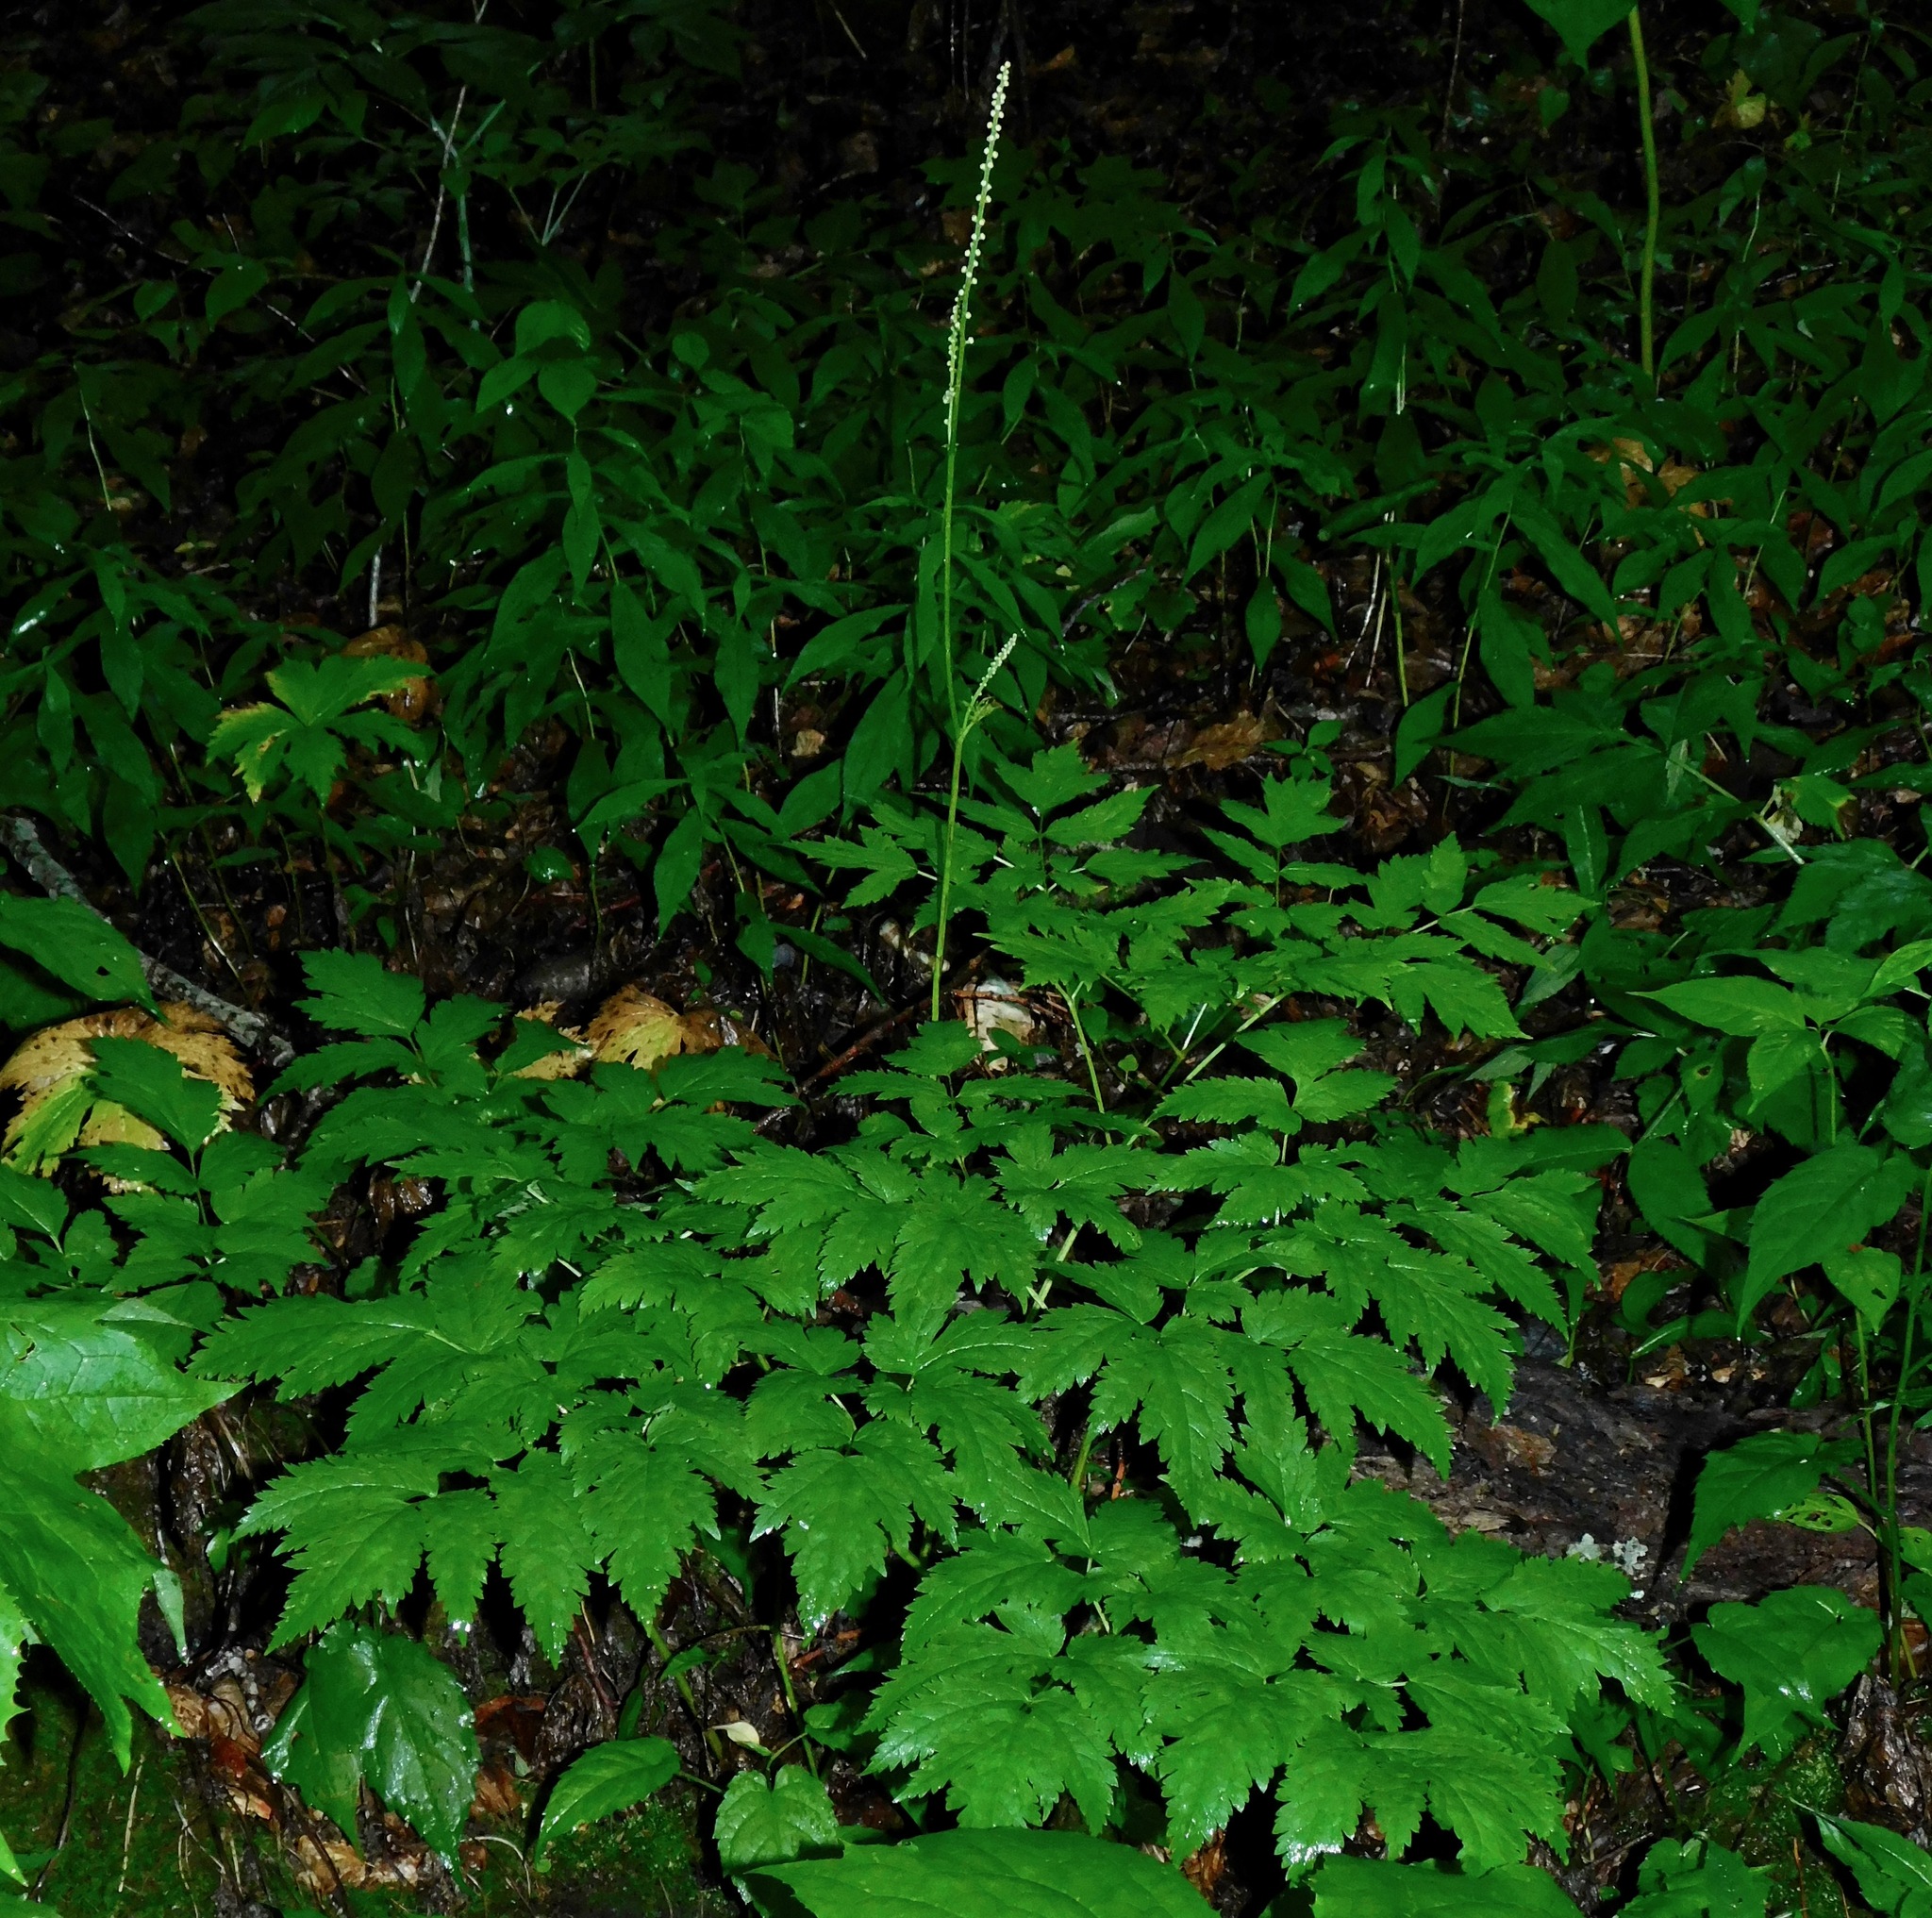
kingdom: Plantae
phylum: Tracheophyta
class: Magnoliopsida
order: Ranunculales
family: Ranunculaceae
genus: Actaea
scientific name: Actaea racemosa
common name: Black cohosh
